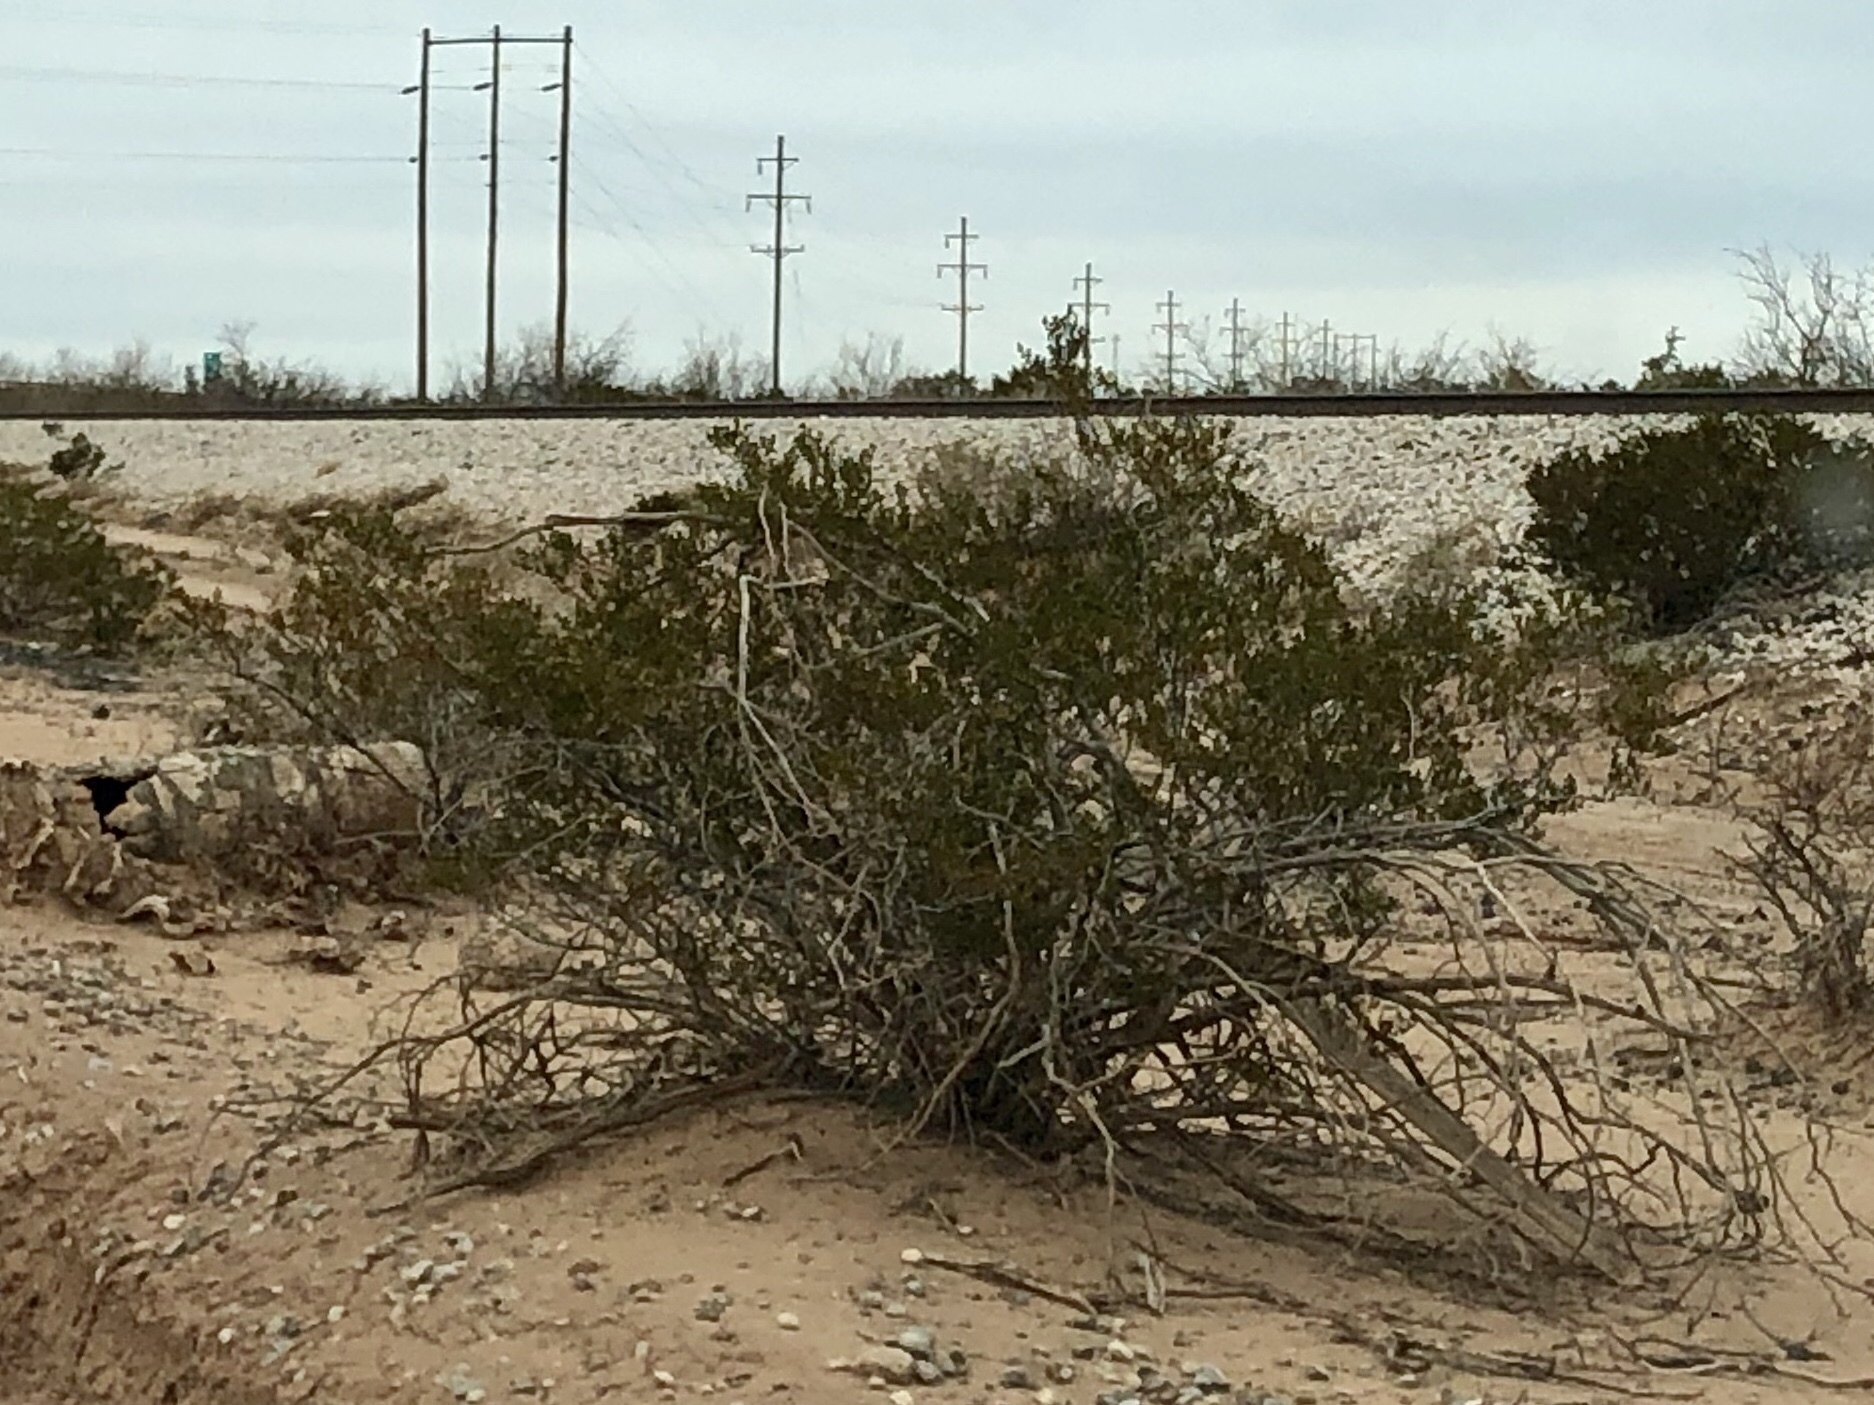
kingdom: Plantae
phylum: Tracheophyta
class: Magnoliopsida
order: Zygophyllales
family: Zygophyllaceae
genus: Larrea
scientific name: Larrea tridentata
